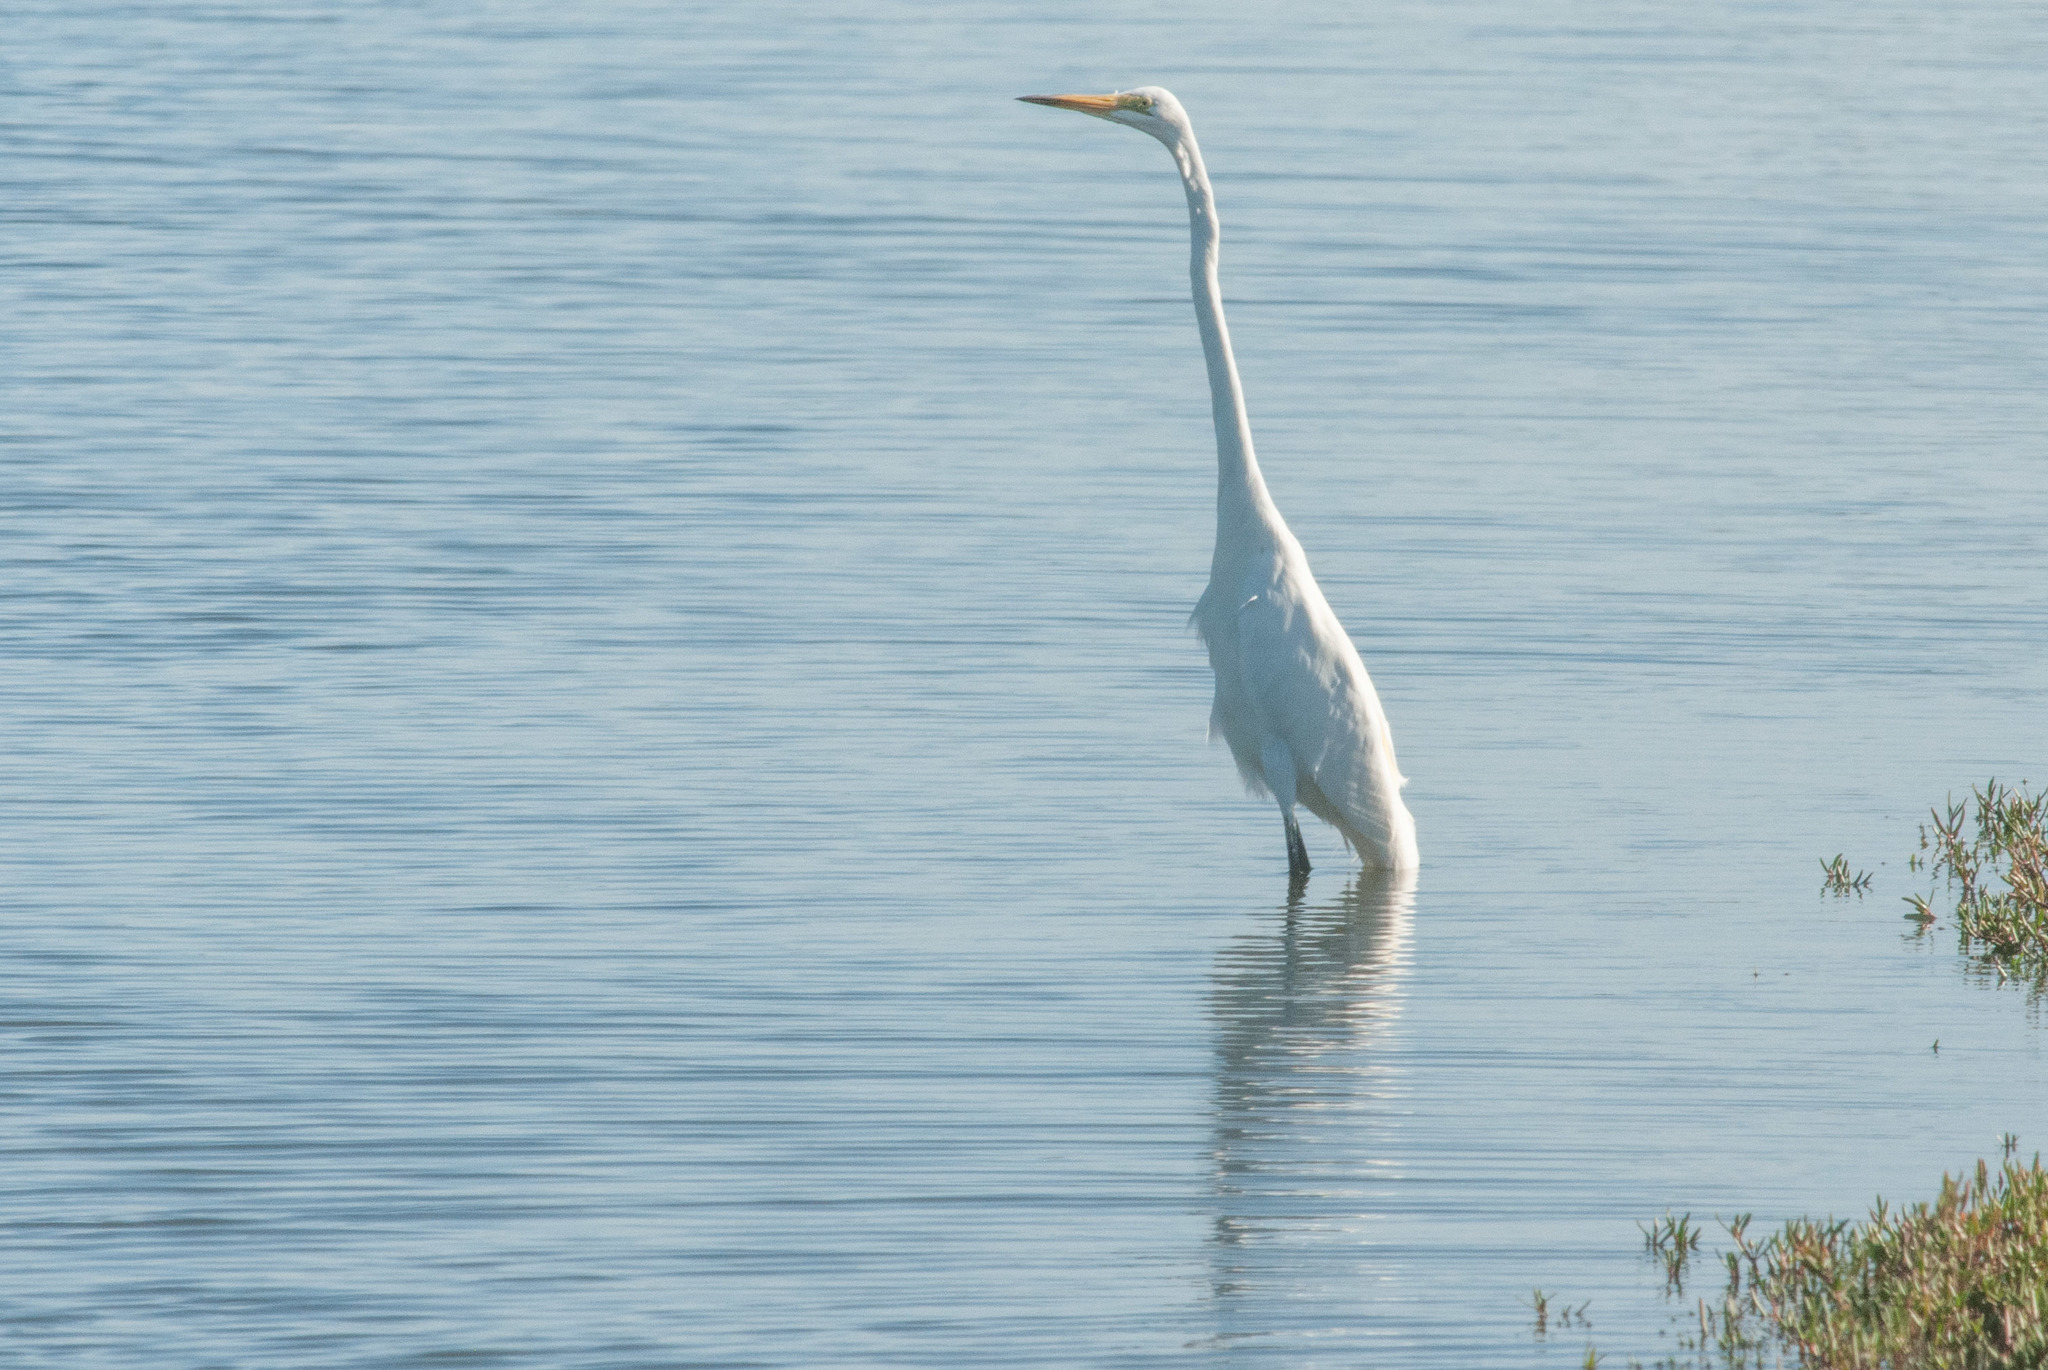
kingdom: Animalia
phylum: Chordata
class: Aves
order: Pelecaniformes
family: Ardeidae
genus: Ardea
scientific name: Ardea alba
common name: Great egret
